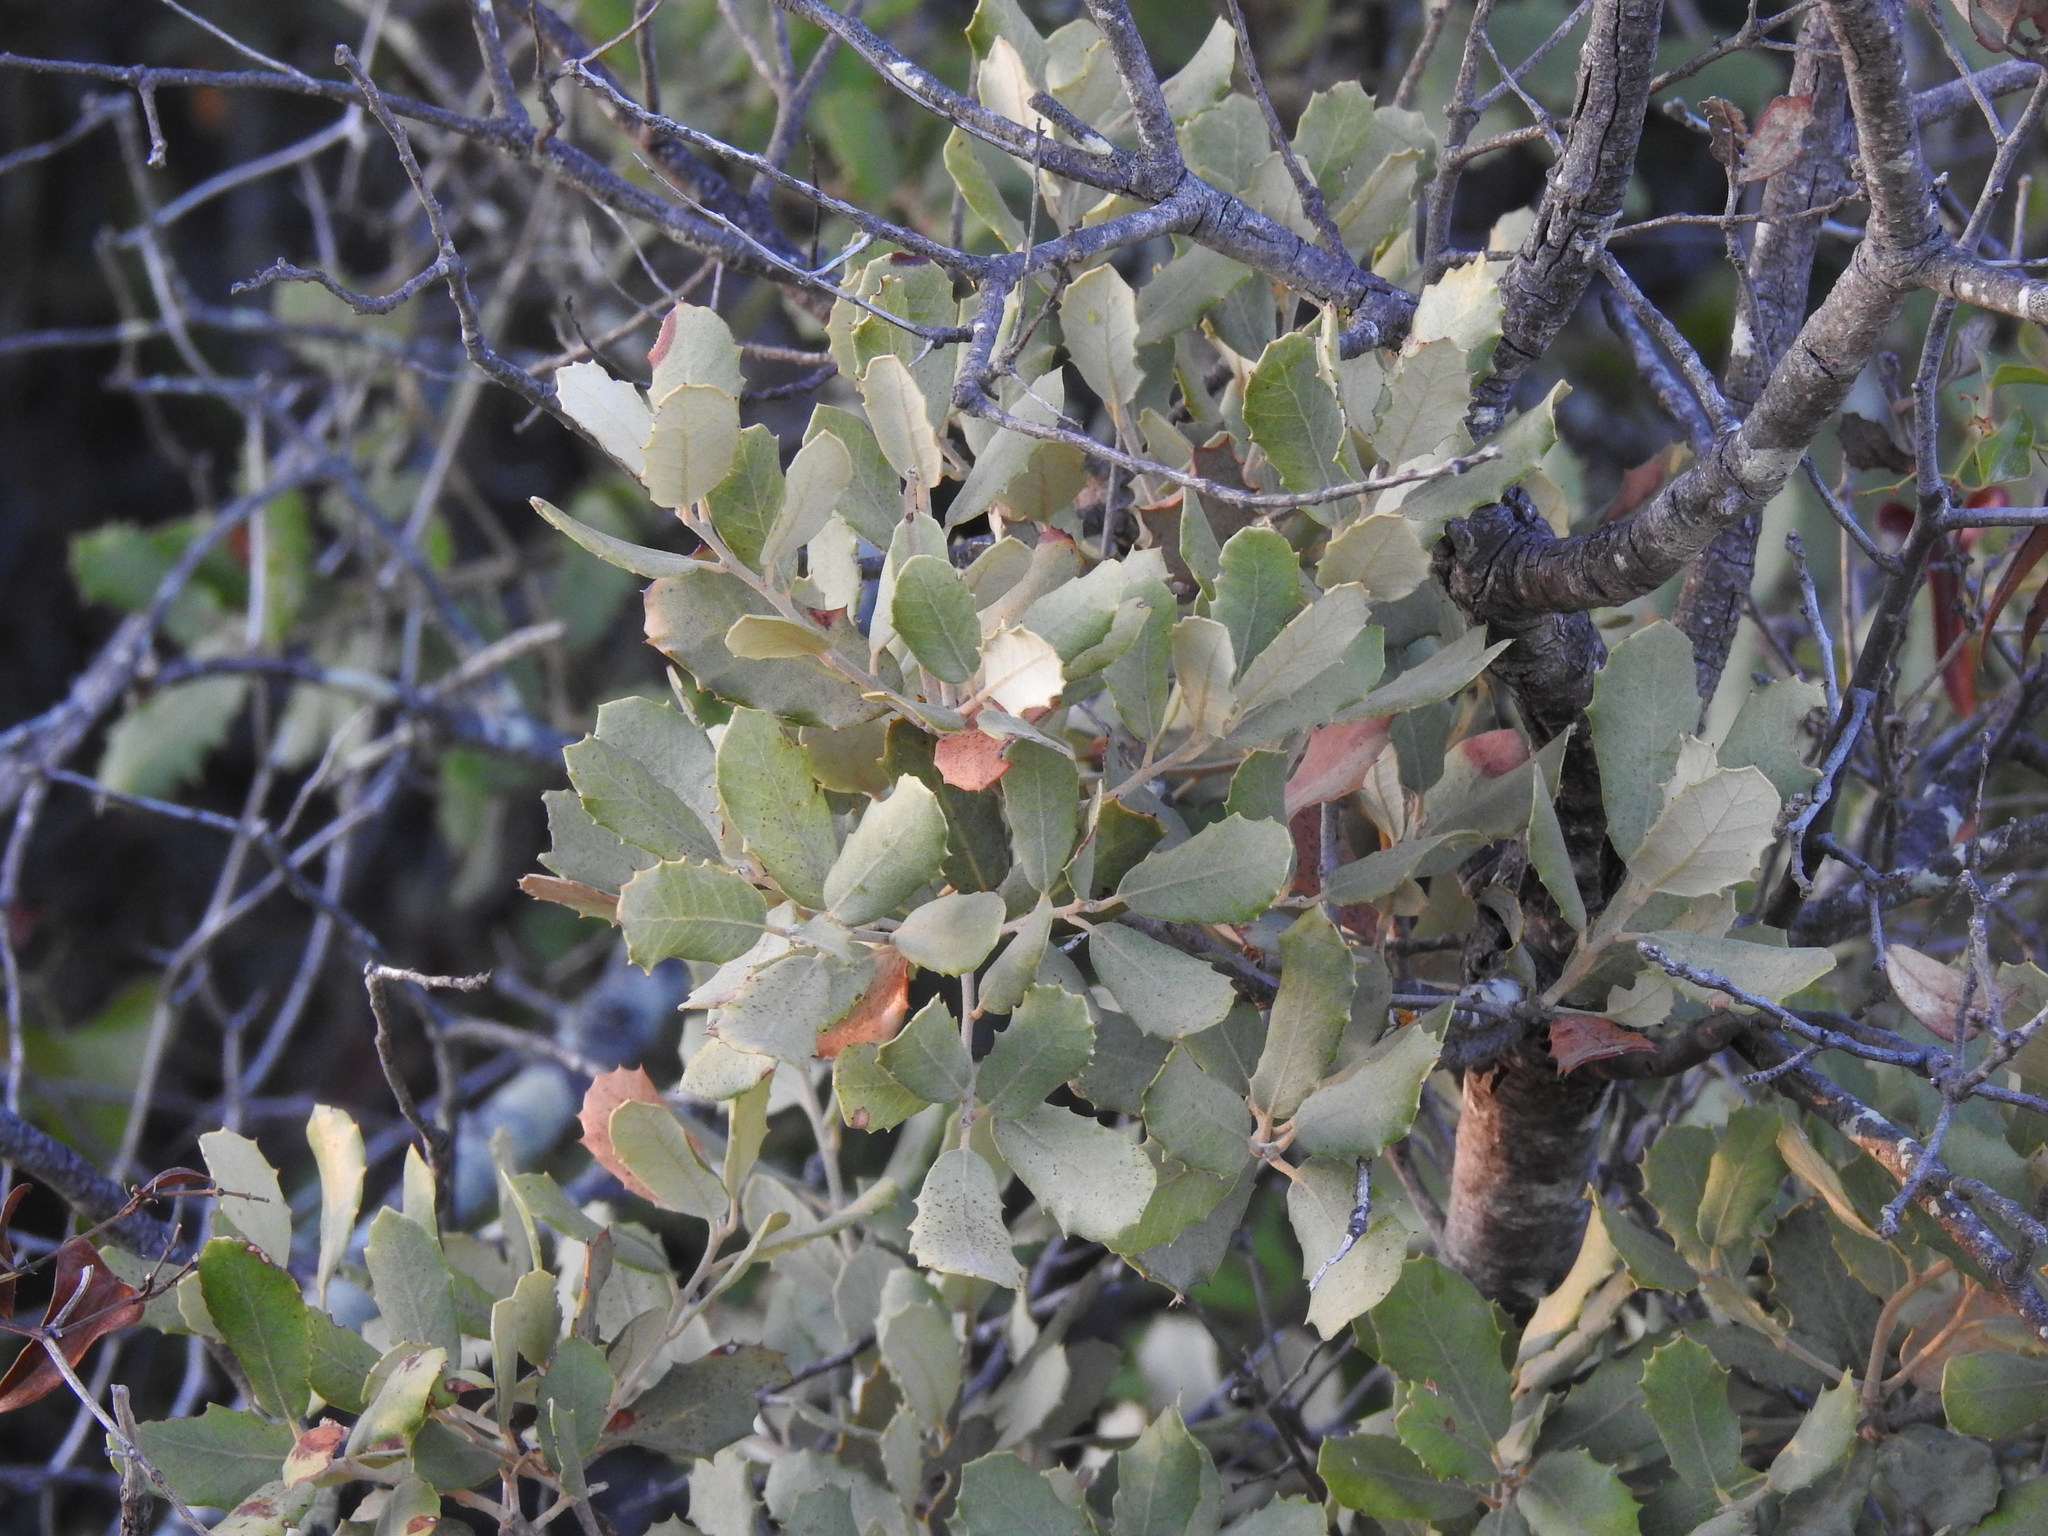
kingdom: Plantae
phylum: Tracheophyta
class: Magnoliopsida
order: Fagales
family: Fagaceae
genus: Quercus
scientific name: Quercus rotundifolia
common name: Holm oak
